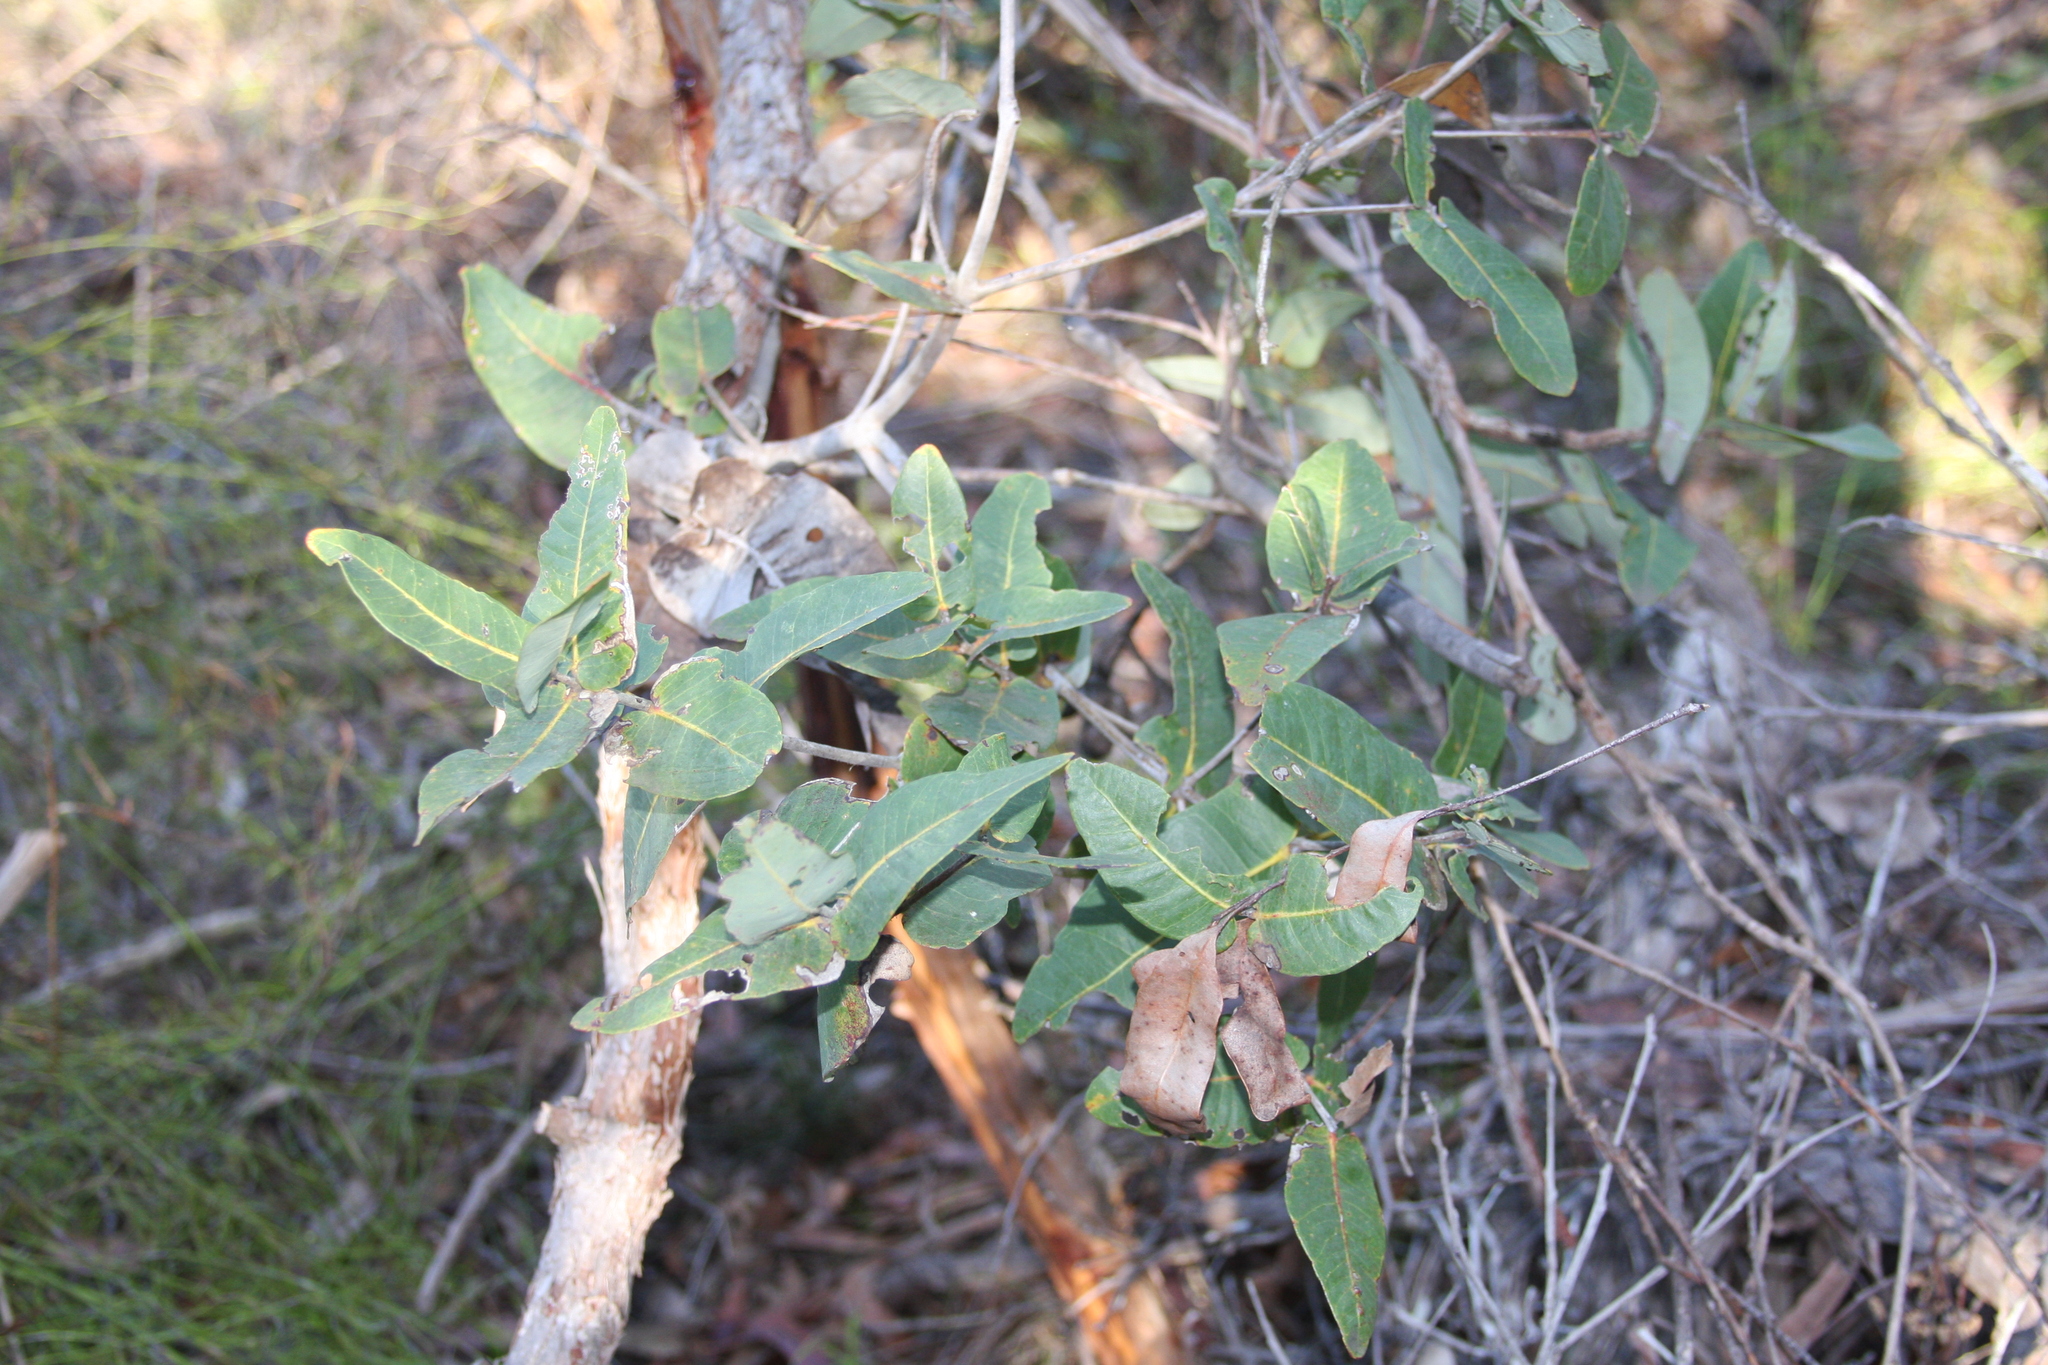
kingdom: Plantae
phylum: Tracheophyta
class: Magnoliopsida
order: Myrtales
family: Myrtaceae
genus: Angophora
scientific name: Angophora hispida
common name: Dwarf-apple
